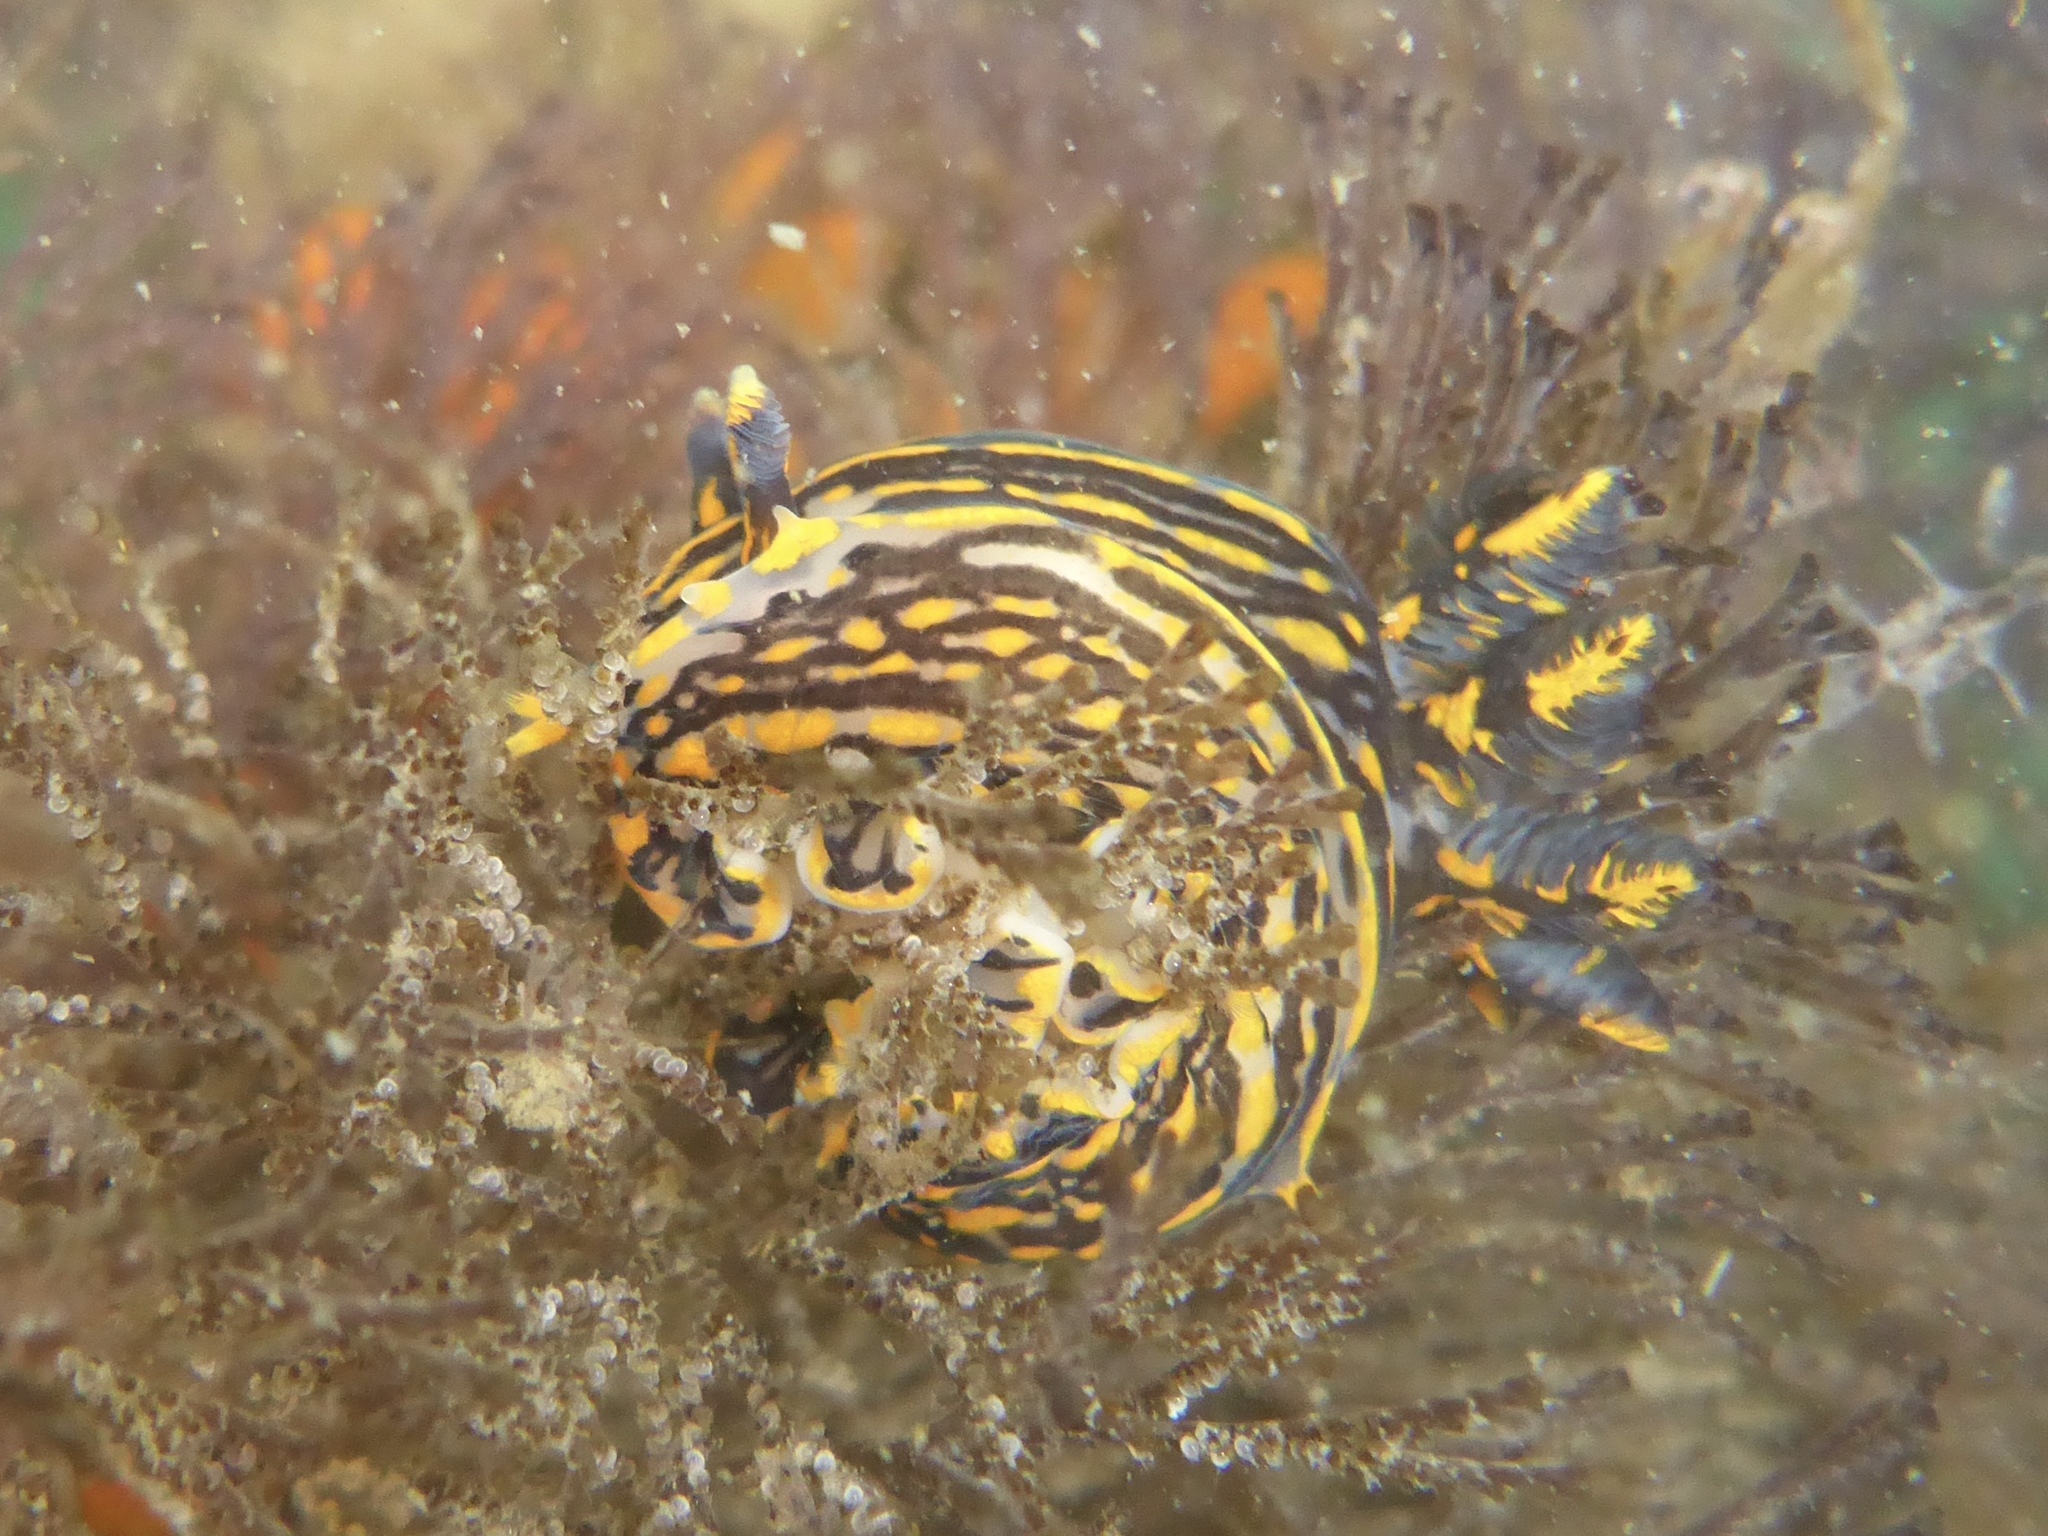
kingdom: Animalia
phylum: Mollusca
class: Gastropoda
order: Nudibranchia
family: Polyceridae
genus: Polycera
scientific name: Polycera atra
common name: Orange-spike polycera
